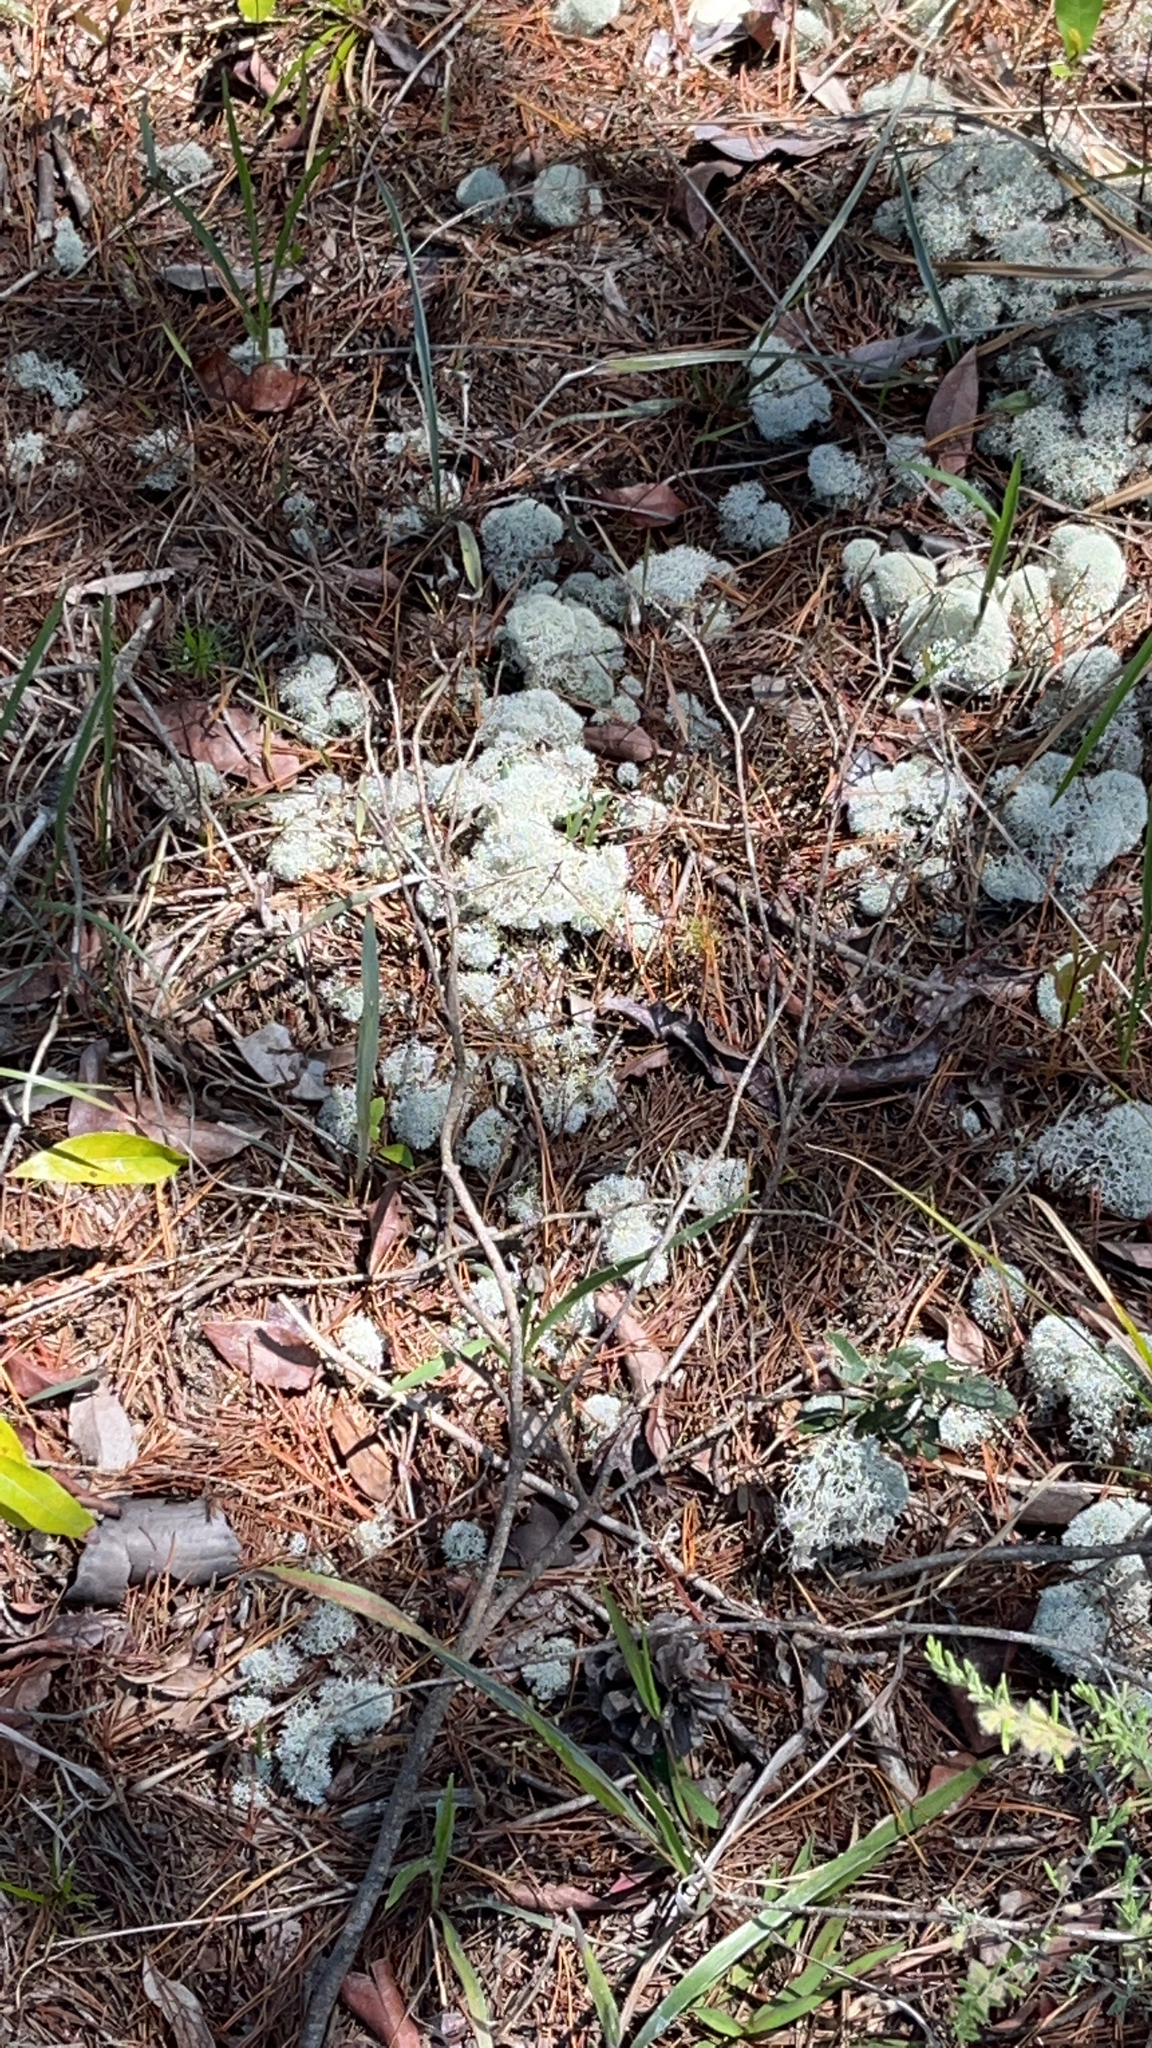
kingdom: Fungi
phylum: Ascomycota
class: Lecanoromycetes
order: Lecanorales
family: Cladoniaceae
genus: Cladonia
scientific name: Cladonia evansii
